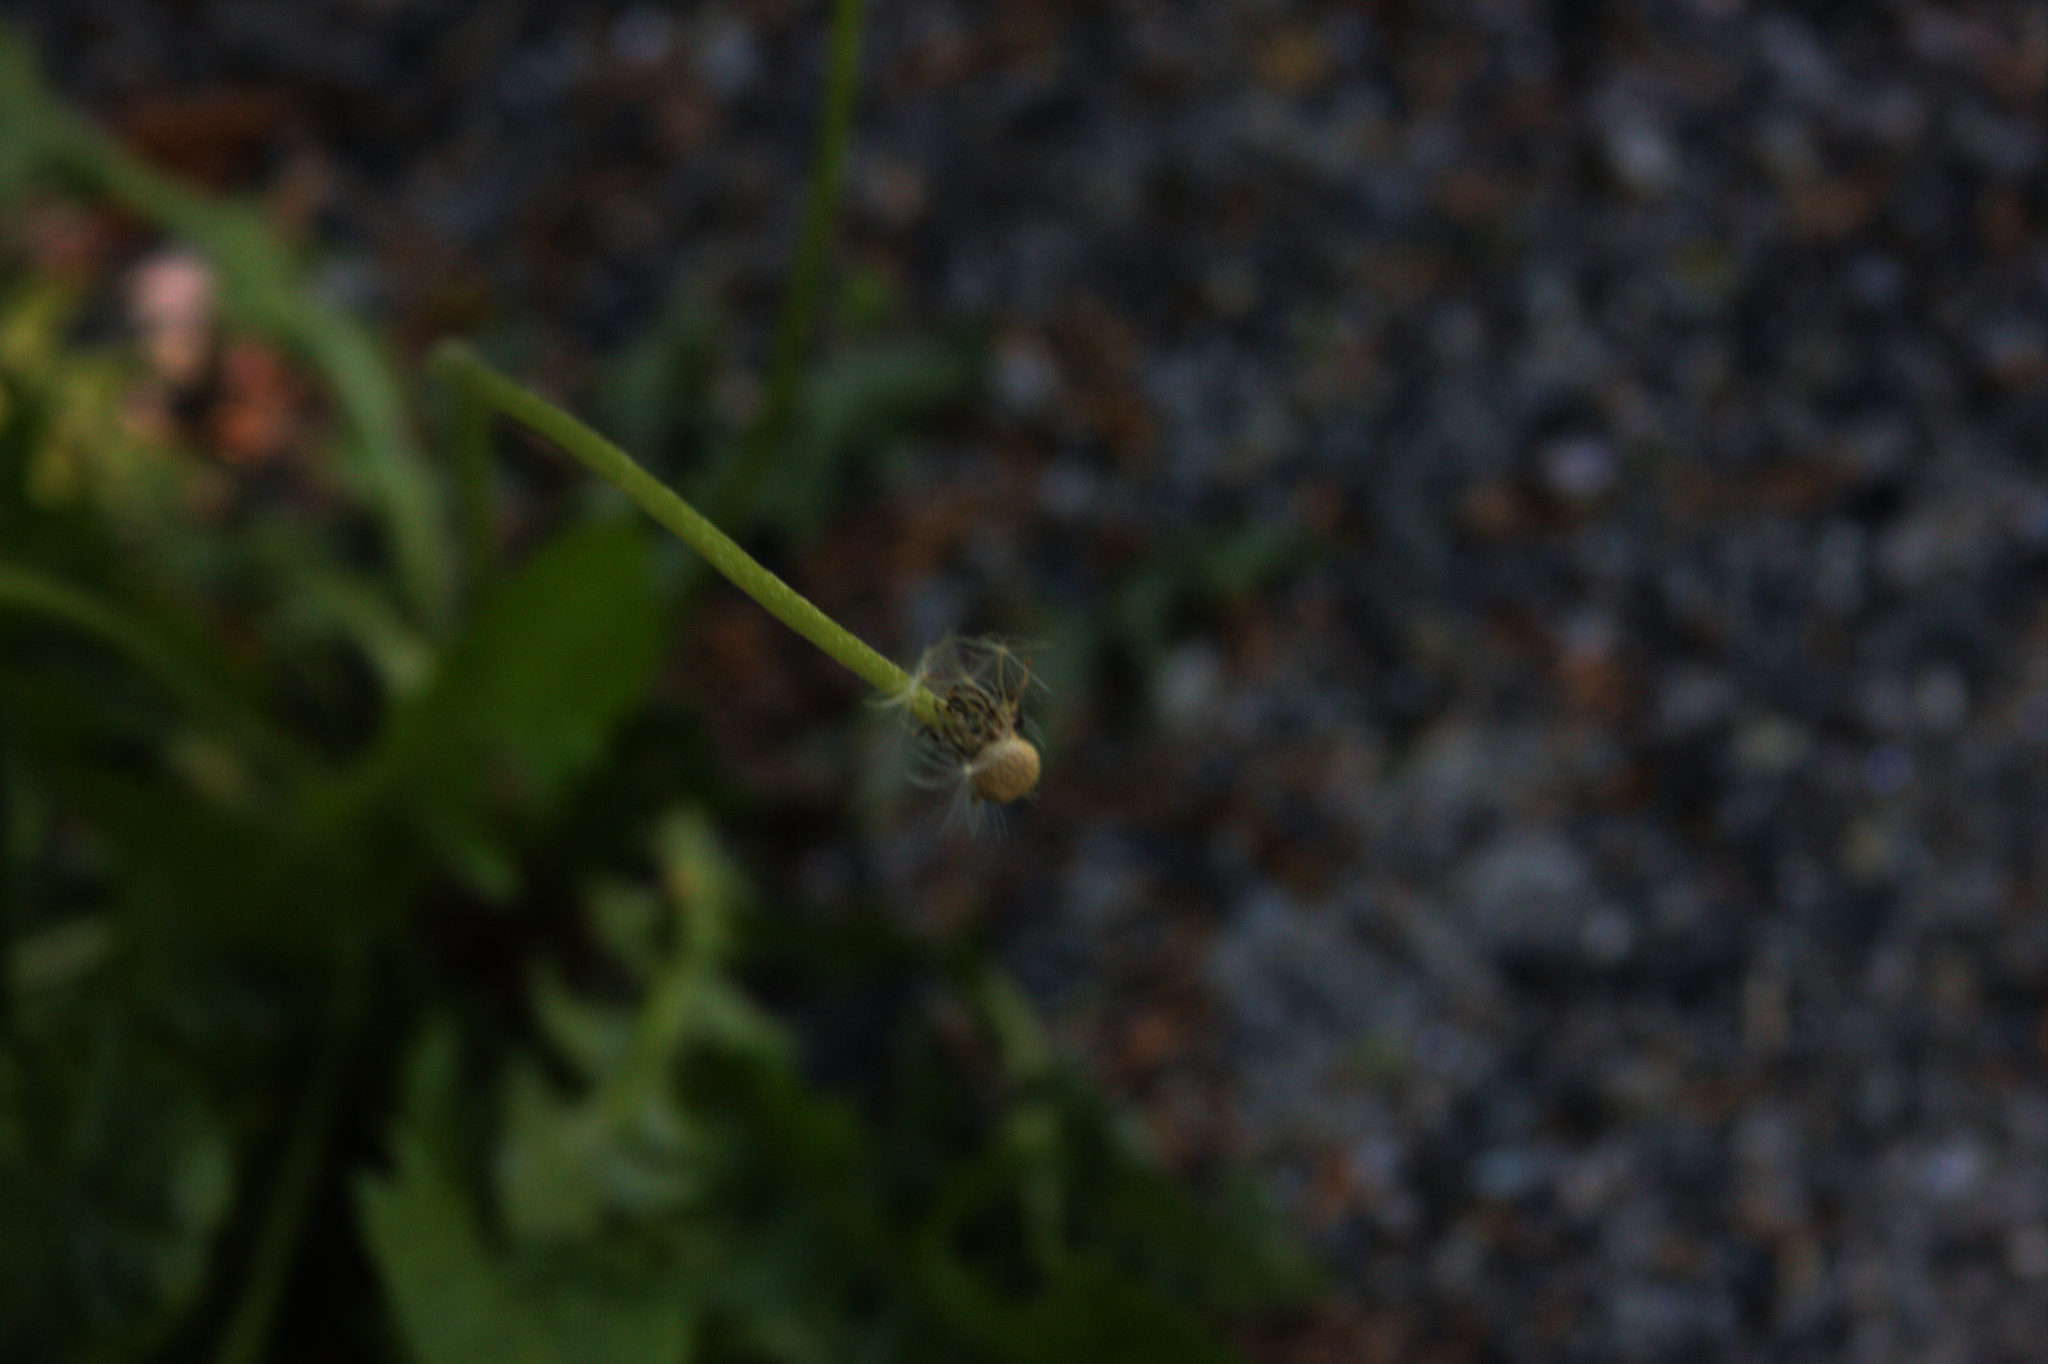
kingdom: Plantae
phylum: Tracheophyta
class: Magnoliopsida
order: Asterales
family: Asteraceae
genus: Taraxacum
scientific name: Taraxacum officinale
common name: Common dandelion
